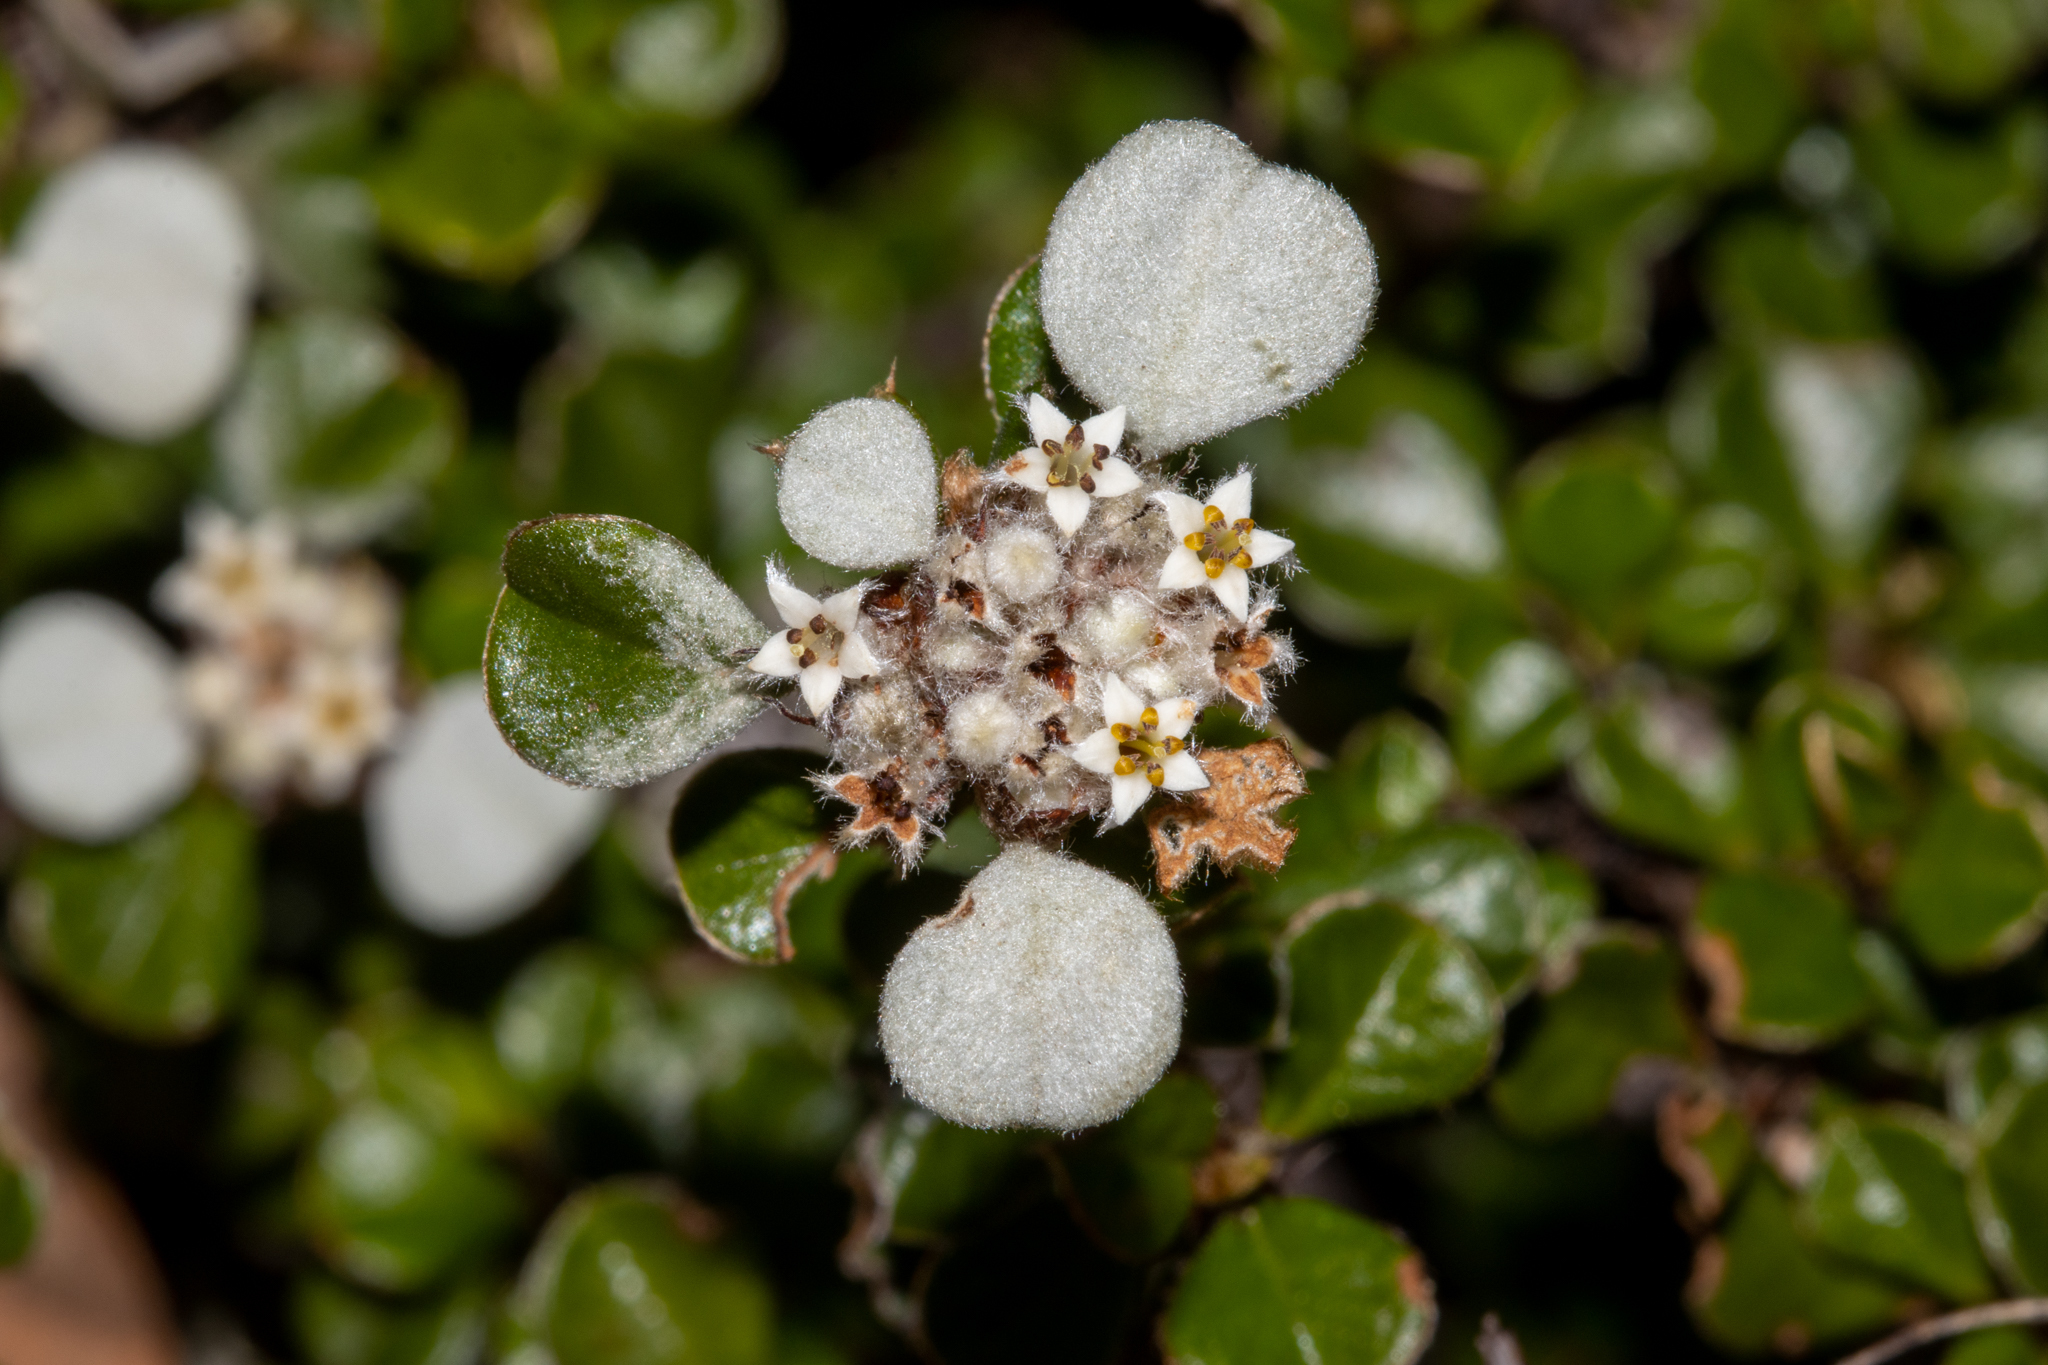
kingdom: Plantae
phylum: Tracheophyta
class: Magnoliopsida
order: Rosales
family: Rhamnaceae
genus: Cryptandra
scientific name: Cryptandra leucophracta
